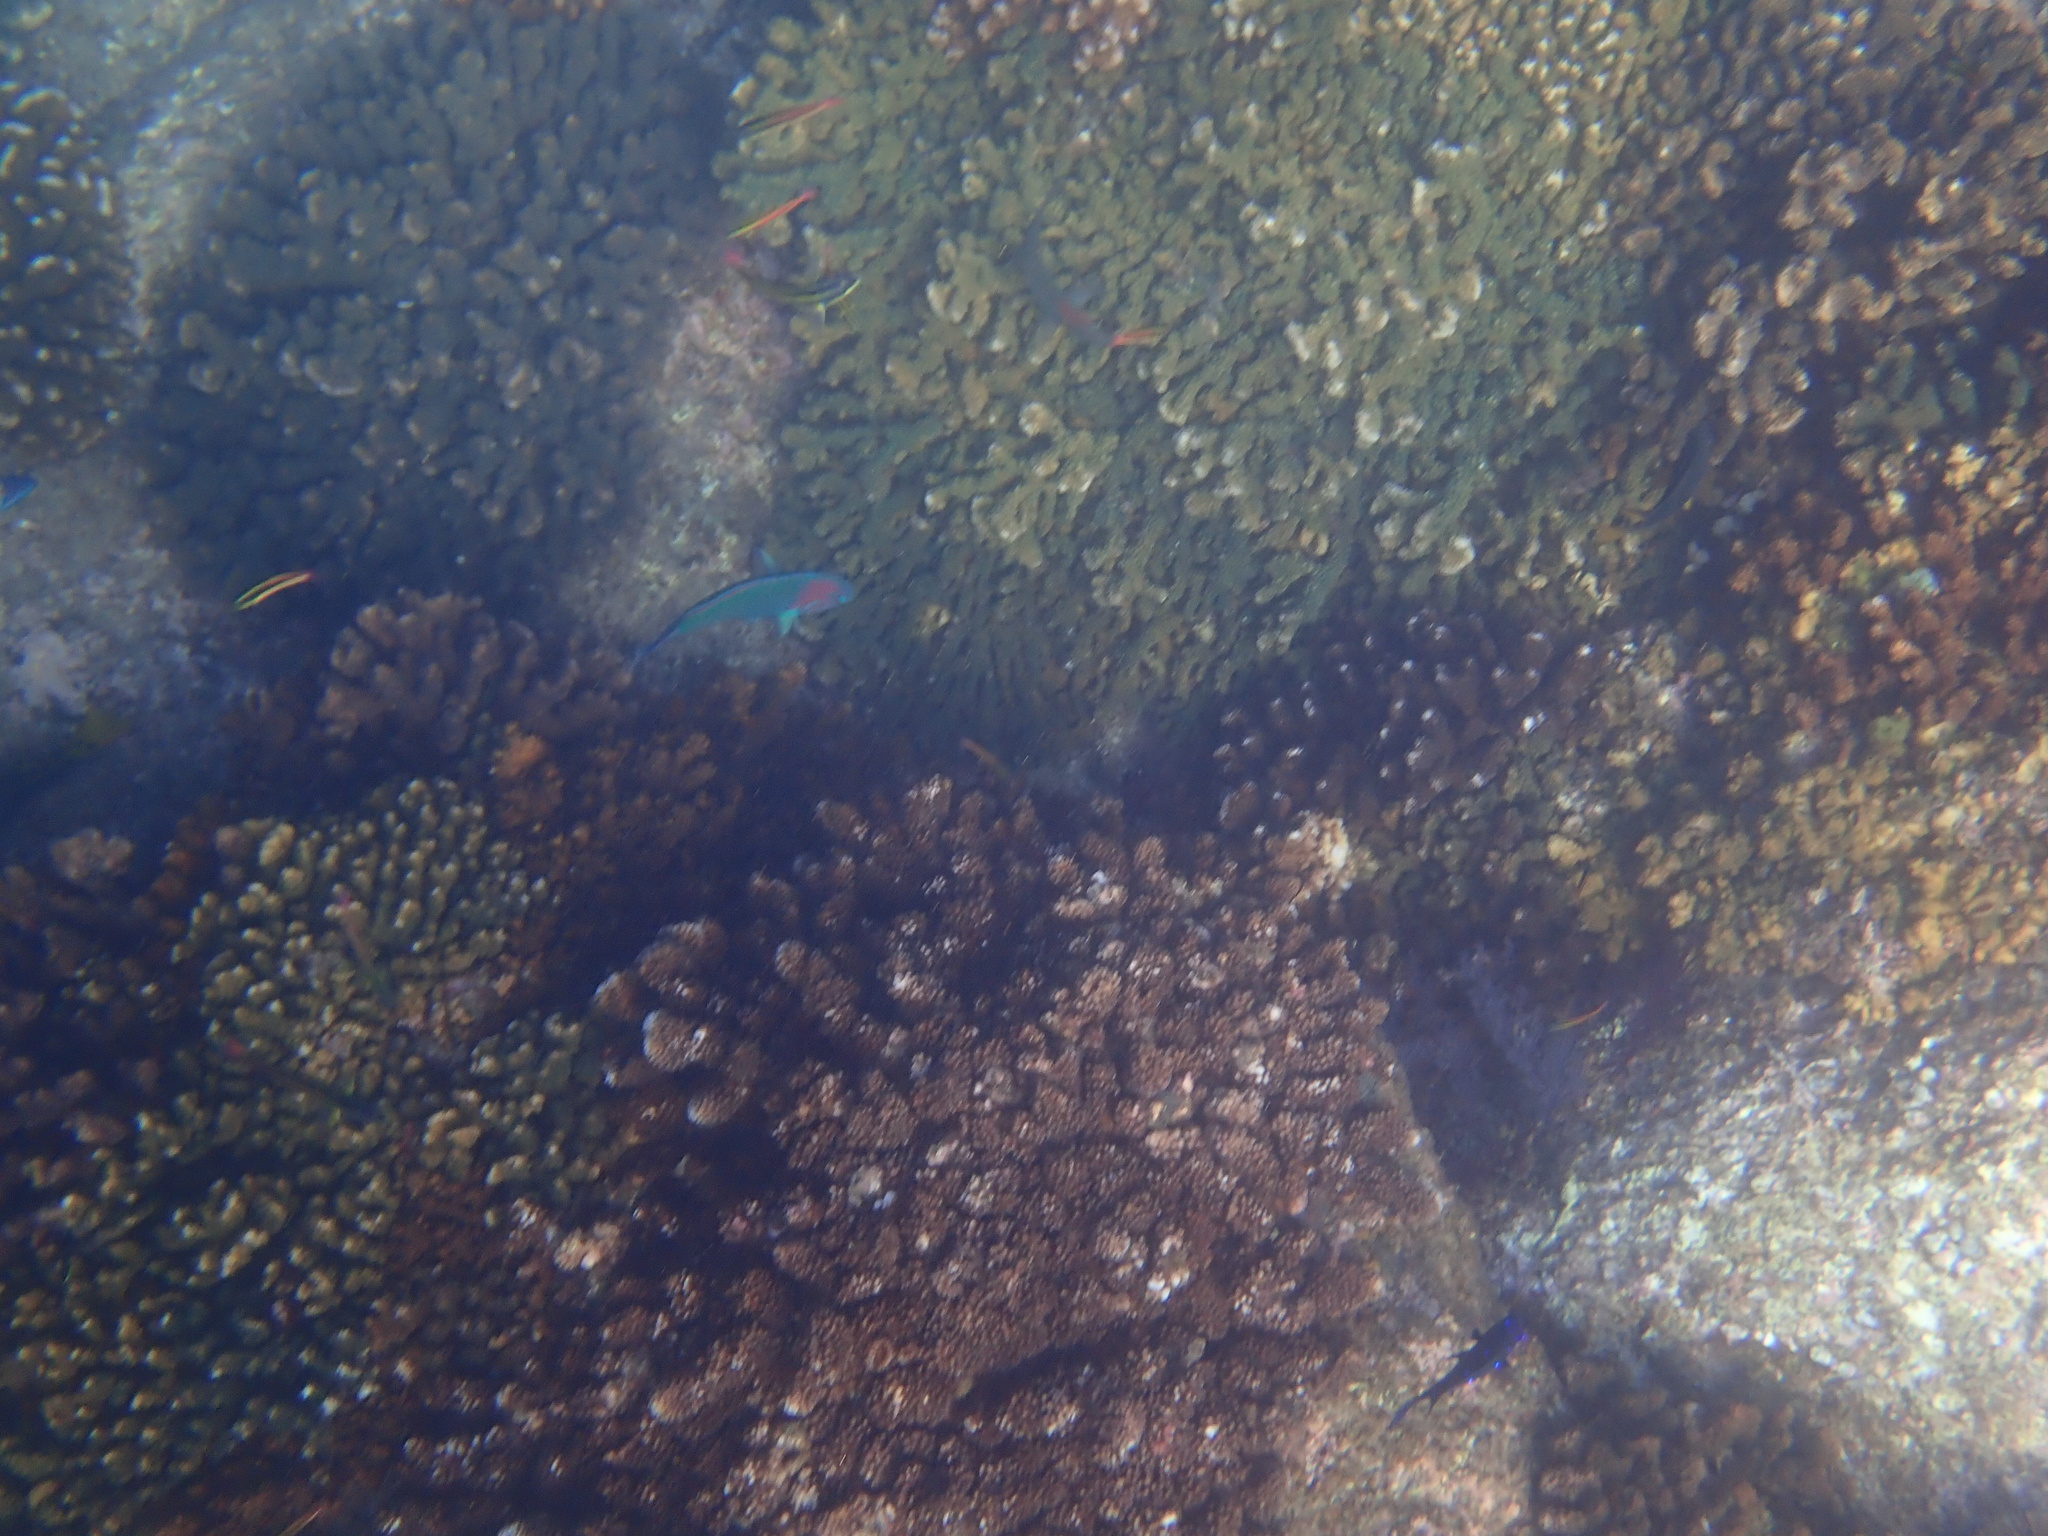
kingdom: Animalia
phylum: Chordata
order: Perciformes
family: Labridae
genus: Thalassoma
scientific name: Thalassoma grammaticum
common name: Sunset wrasse
